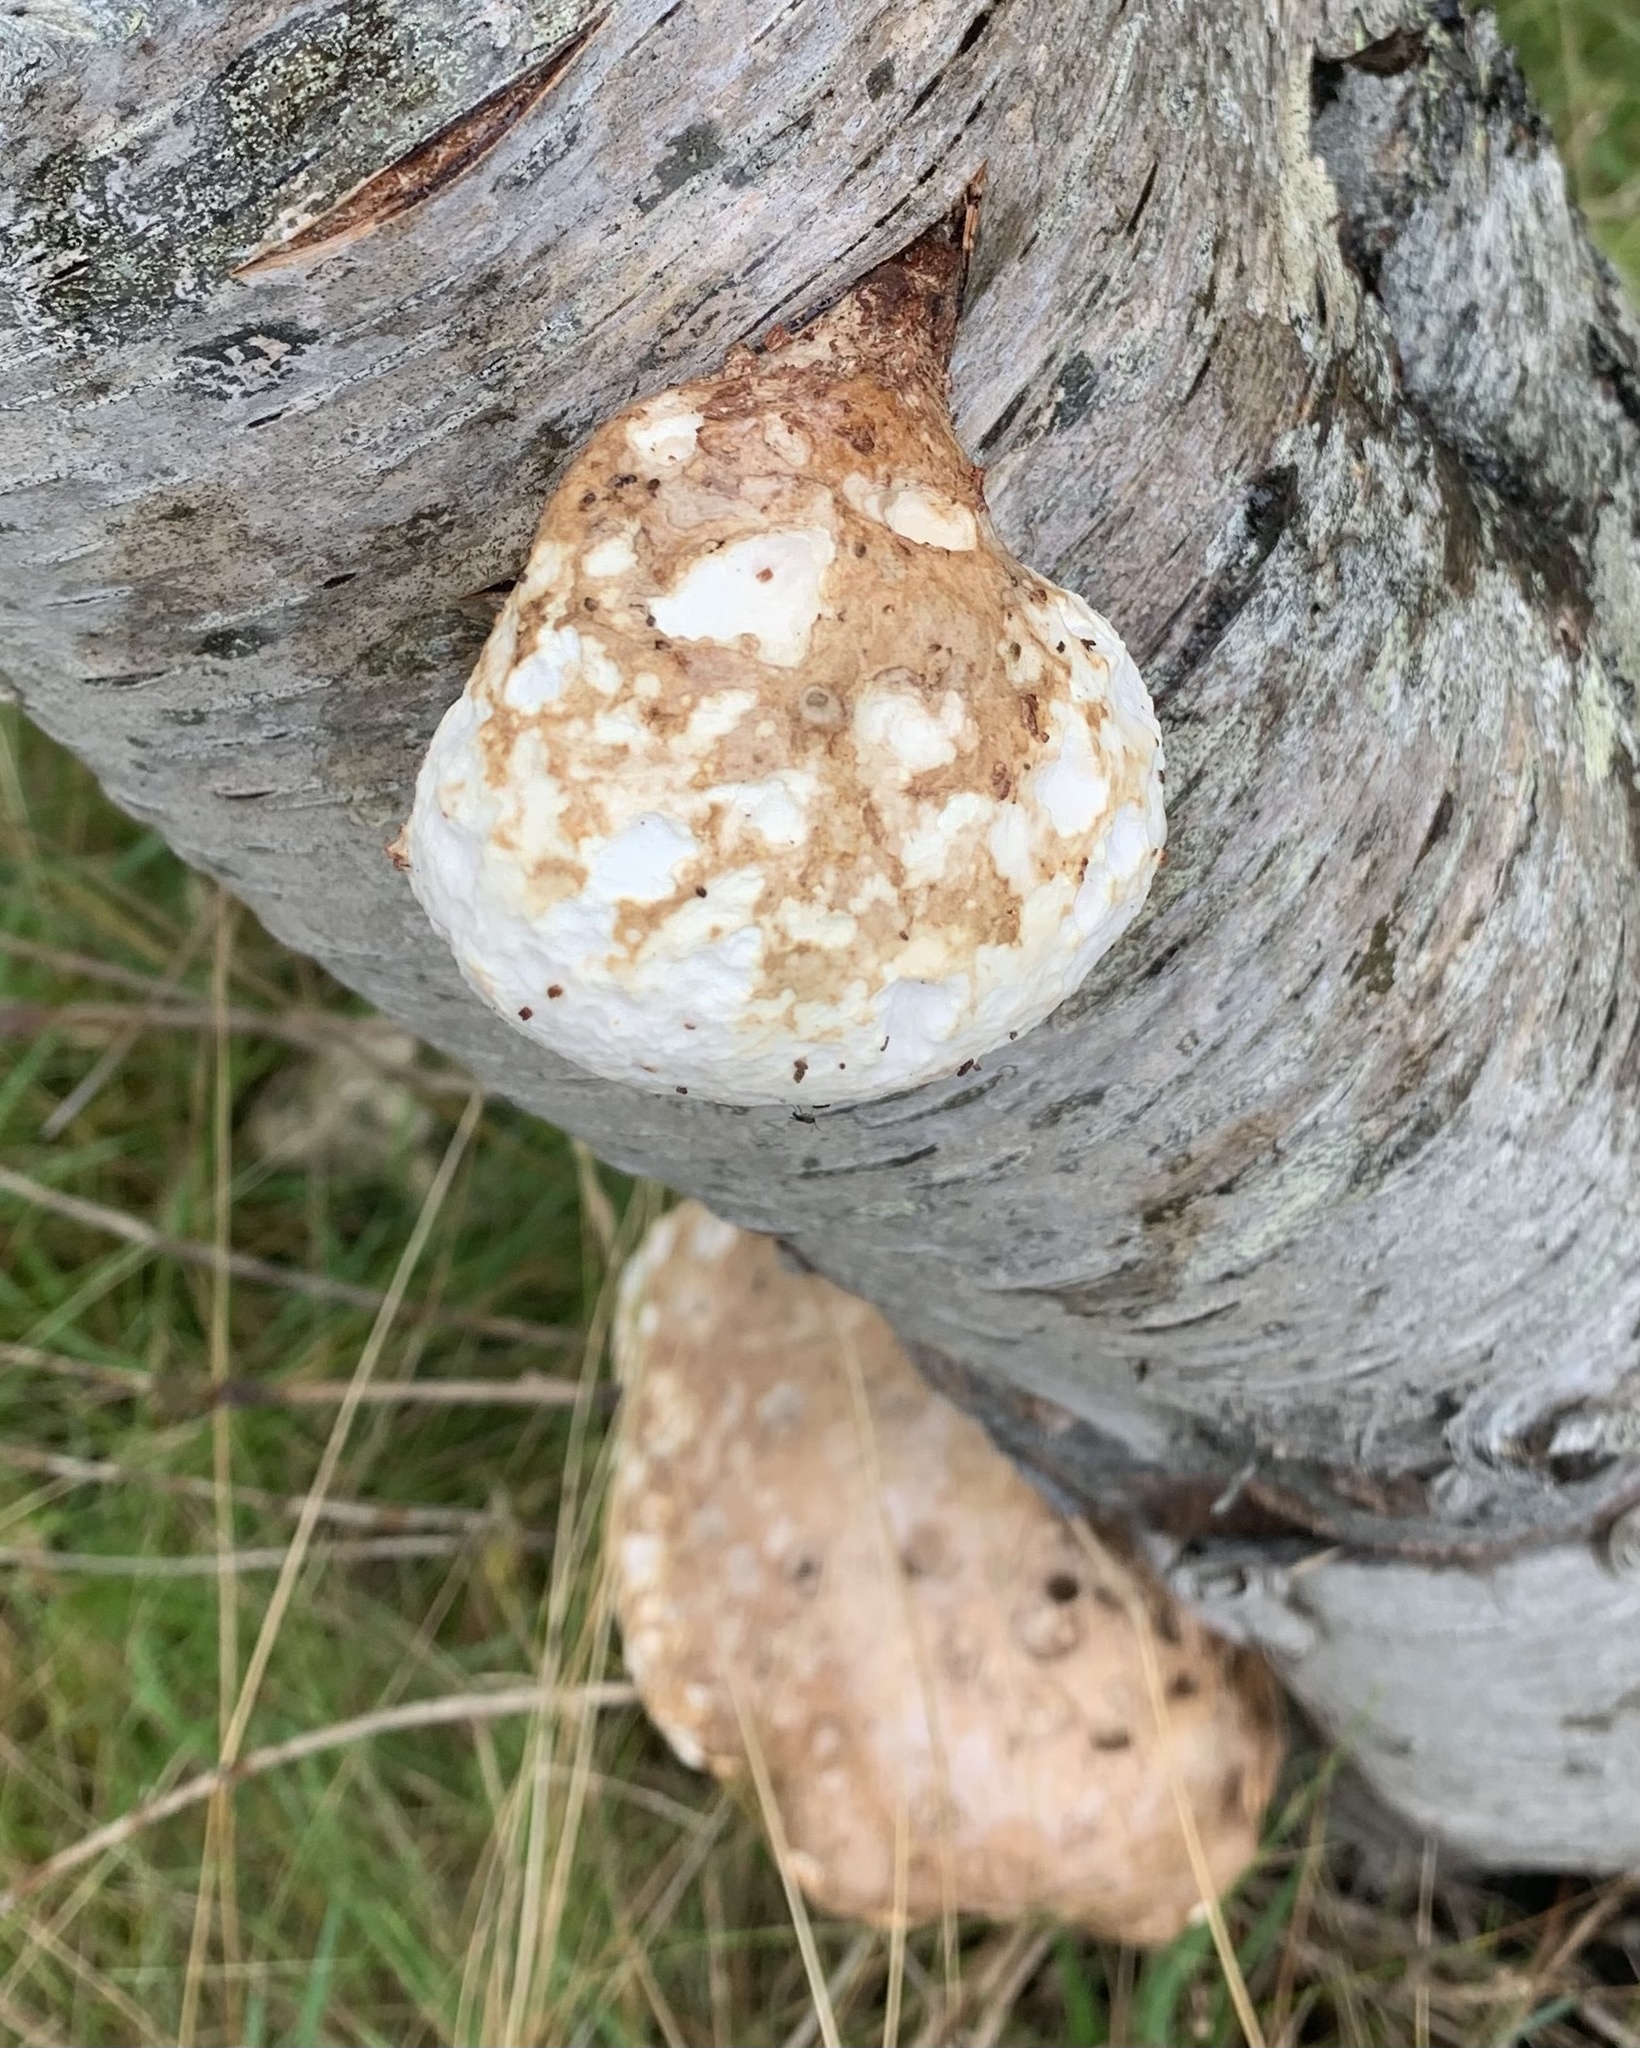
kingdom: Fungi
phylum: Basidiomycota
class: Agaricomycetes
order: Polyporales
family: Fomitopsidaceae
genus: Fomitopsis
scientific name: Fomitopsis betulina
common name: Birch polypore
